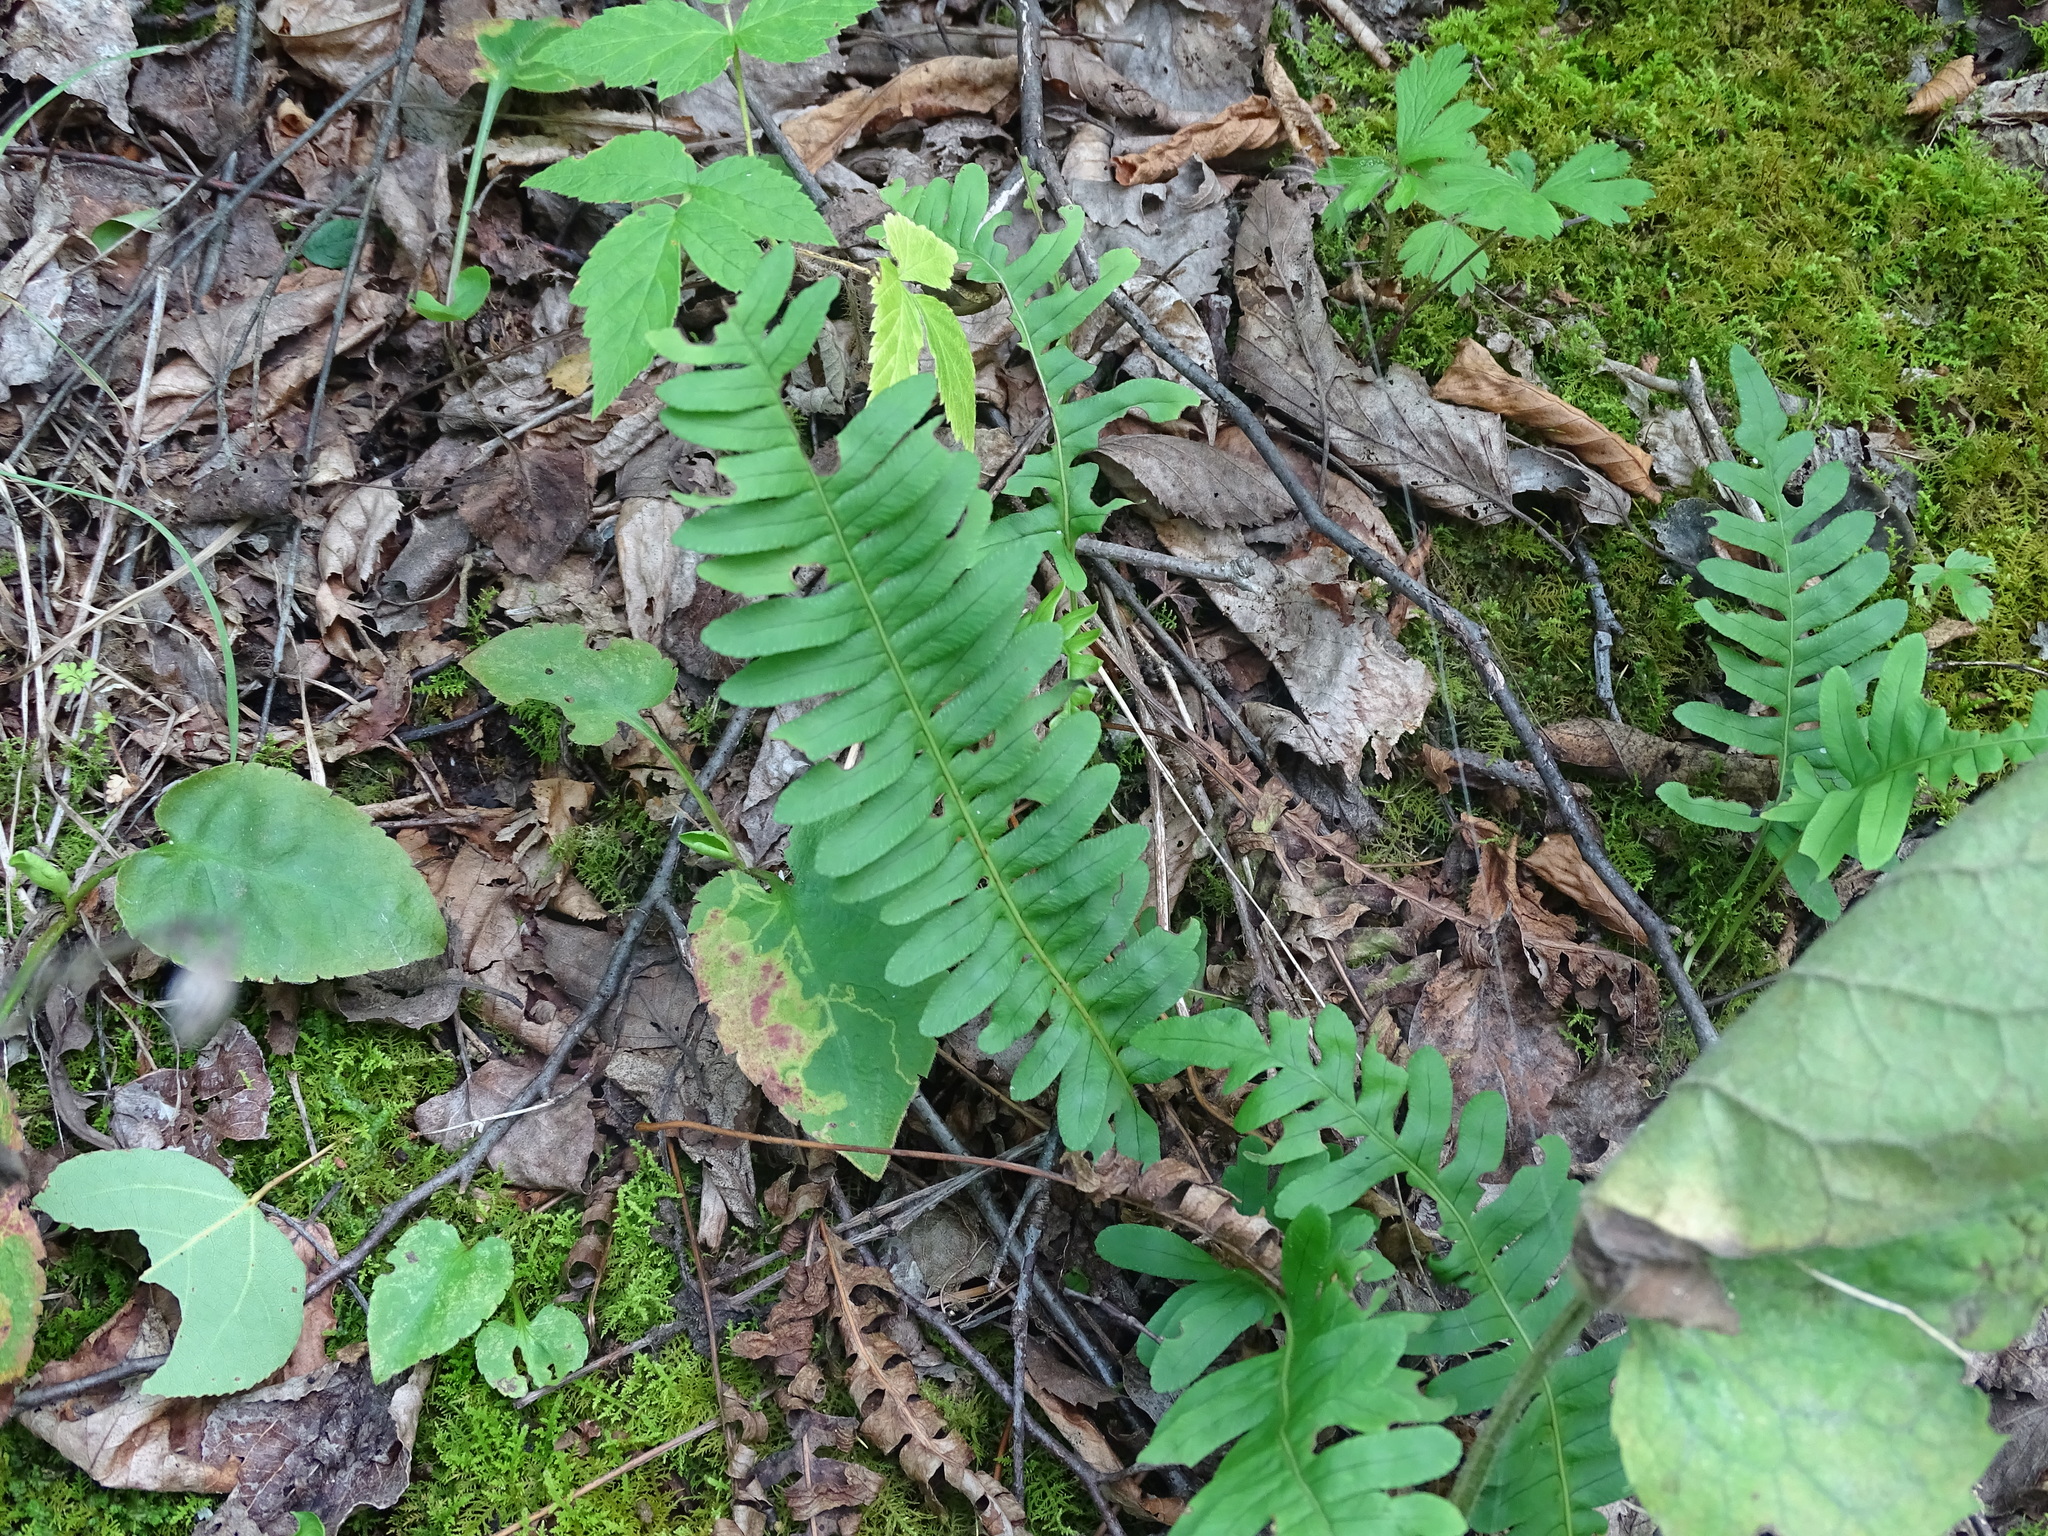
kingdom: Plantae
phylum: Tracheophyta
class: Polypodiopsida
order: Polypodiales
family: Polypodiaceae
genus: Polypodium
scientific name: Polypodium virginianum
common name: American wall fern
